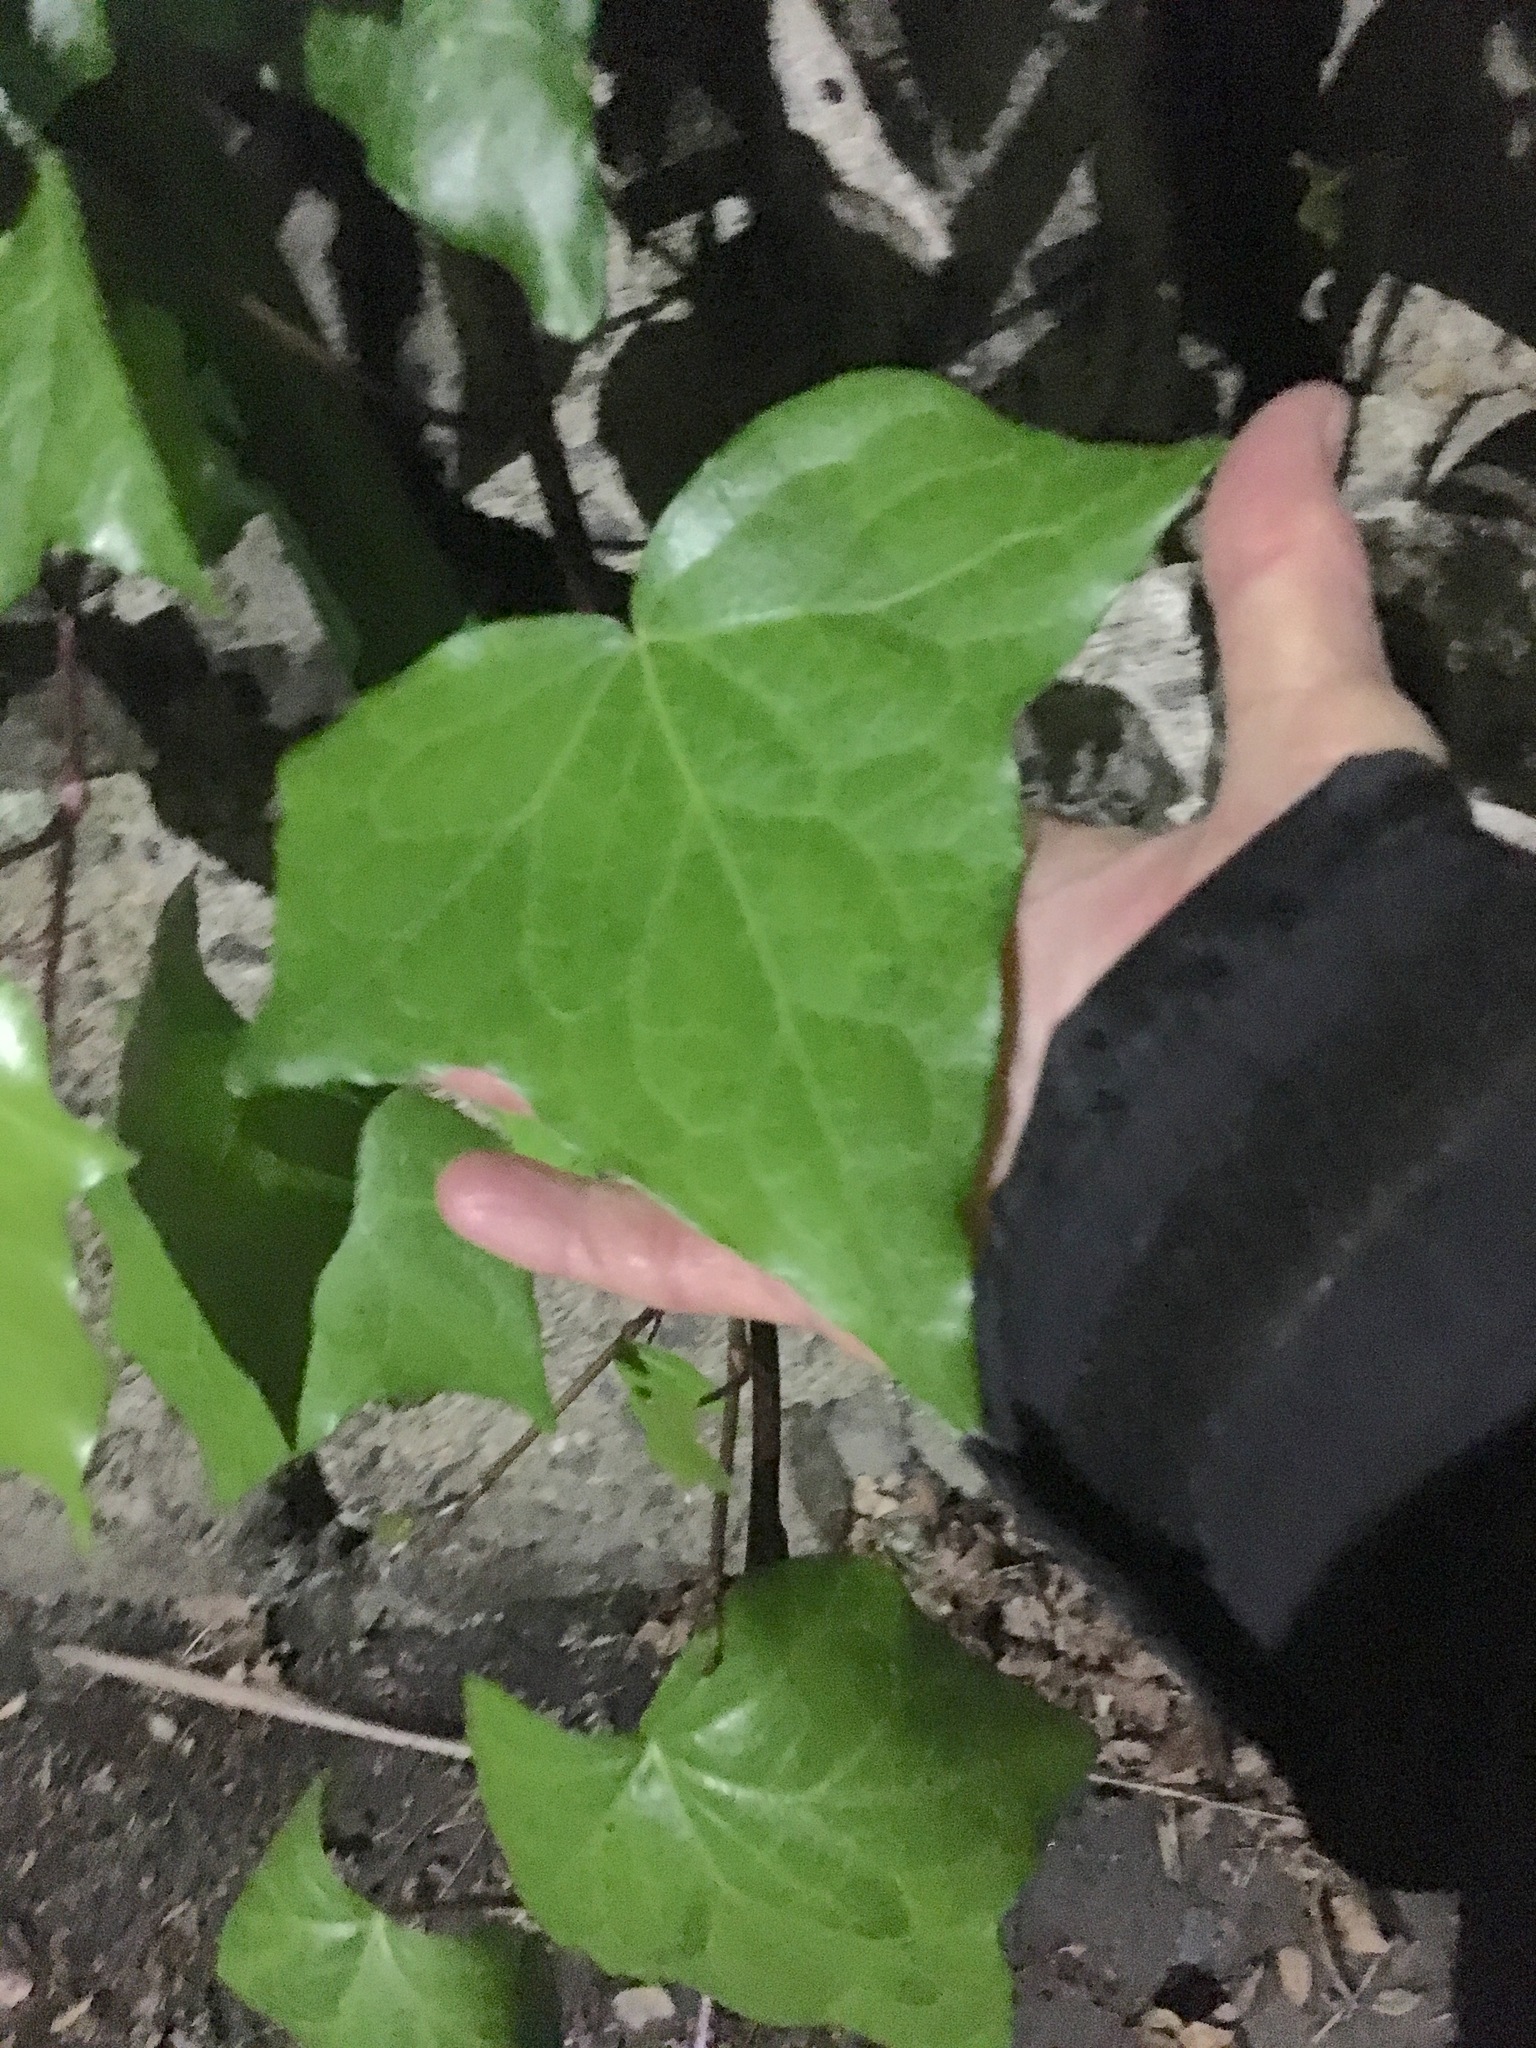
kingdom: Plantae
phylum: Tracheophyta
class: Magnoliopsida
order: Apiales
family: Araliaceae
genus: Hedera
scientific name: Hedera canariensis
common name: Madeira ivy
